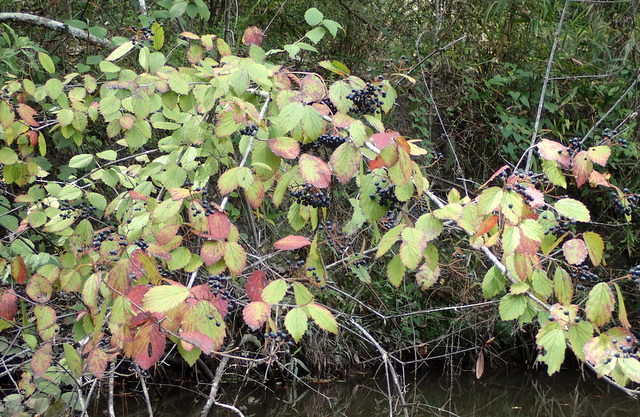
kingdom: Plantae
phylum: Tracheophyta
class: Magnoliopsida
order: Dipsacales
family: Viburnaceae
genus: Viburnum
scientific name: Viburnum scabrellum
